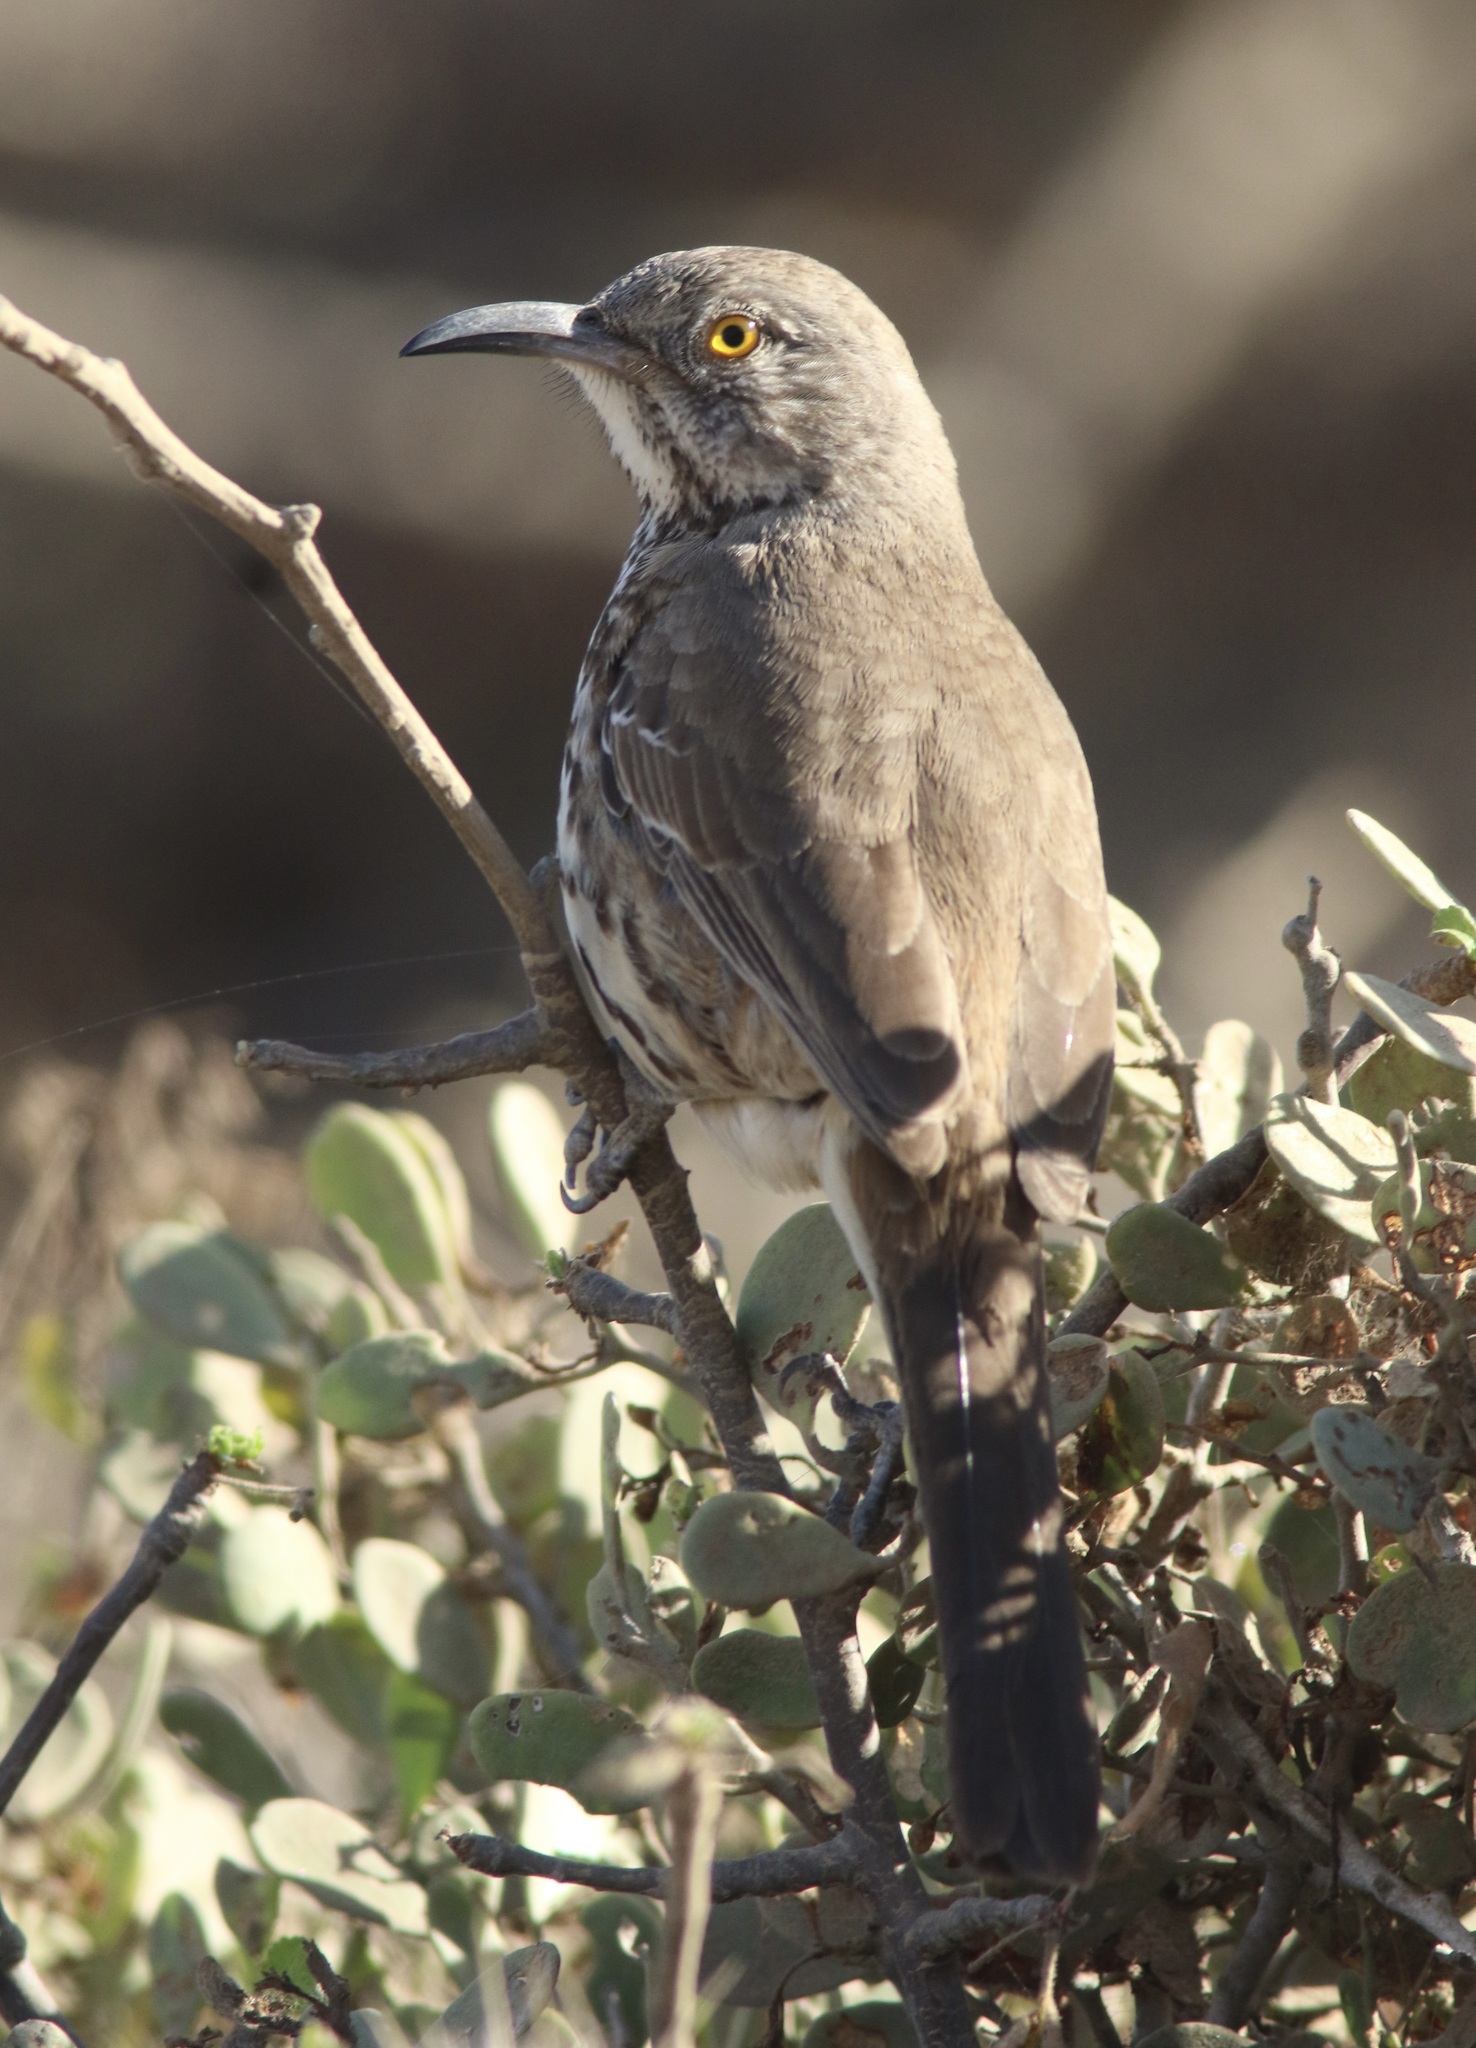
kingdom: Animalia
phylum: Chordata
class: Aves
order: Passeriformes
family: Mimidae
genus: Toxostoma
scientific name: Toxostoma cinereum
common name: Gray thrasher
